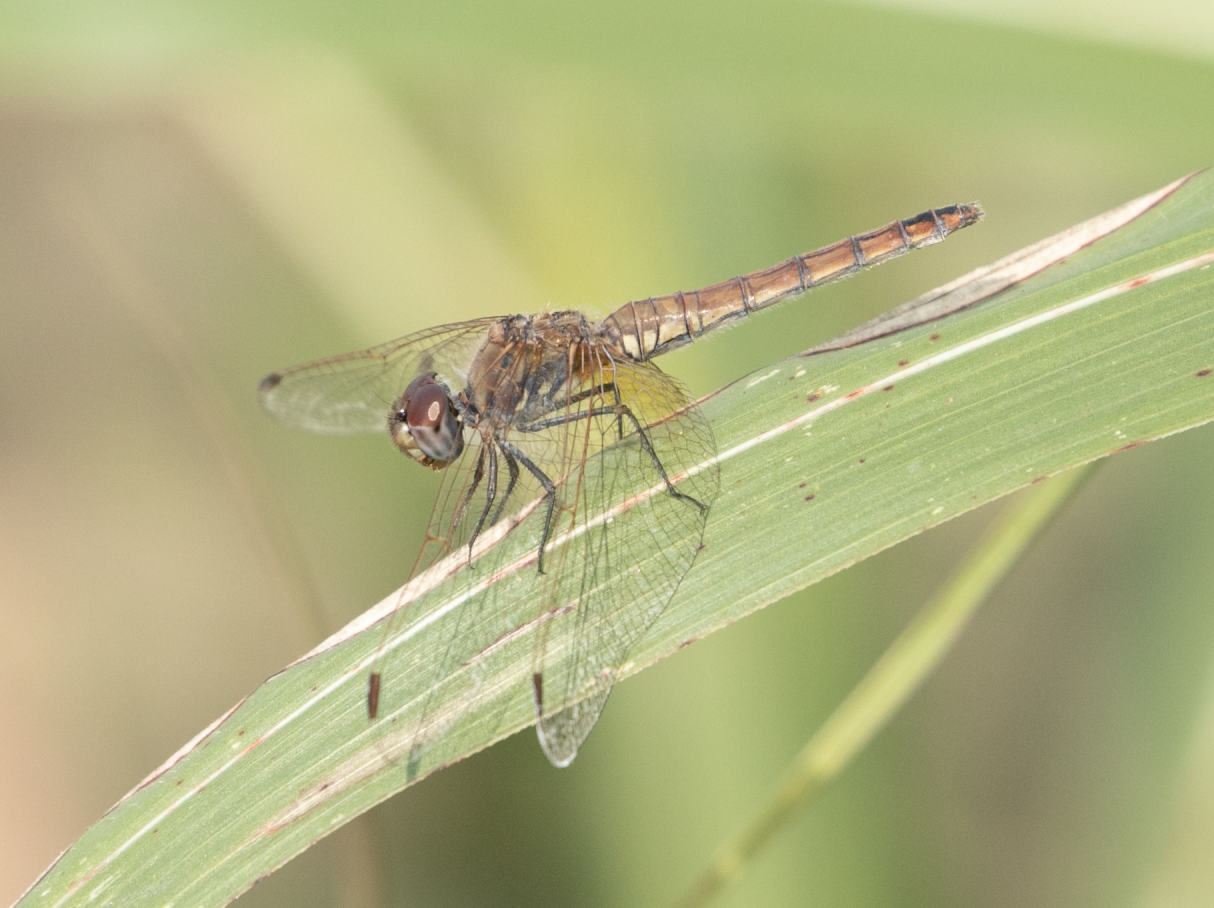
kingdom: Animalia
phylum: Arthropoda
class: Insecta
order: Odonata
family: Libellulidae
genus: Trithemis
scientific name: Trithemis annulata
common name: Violet dropwing
